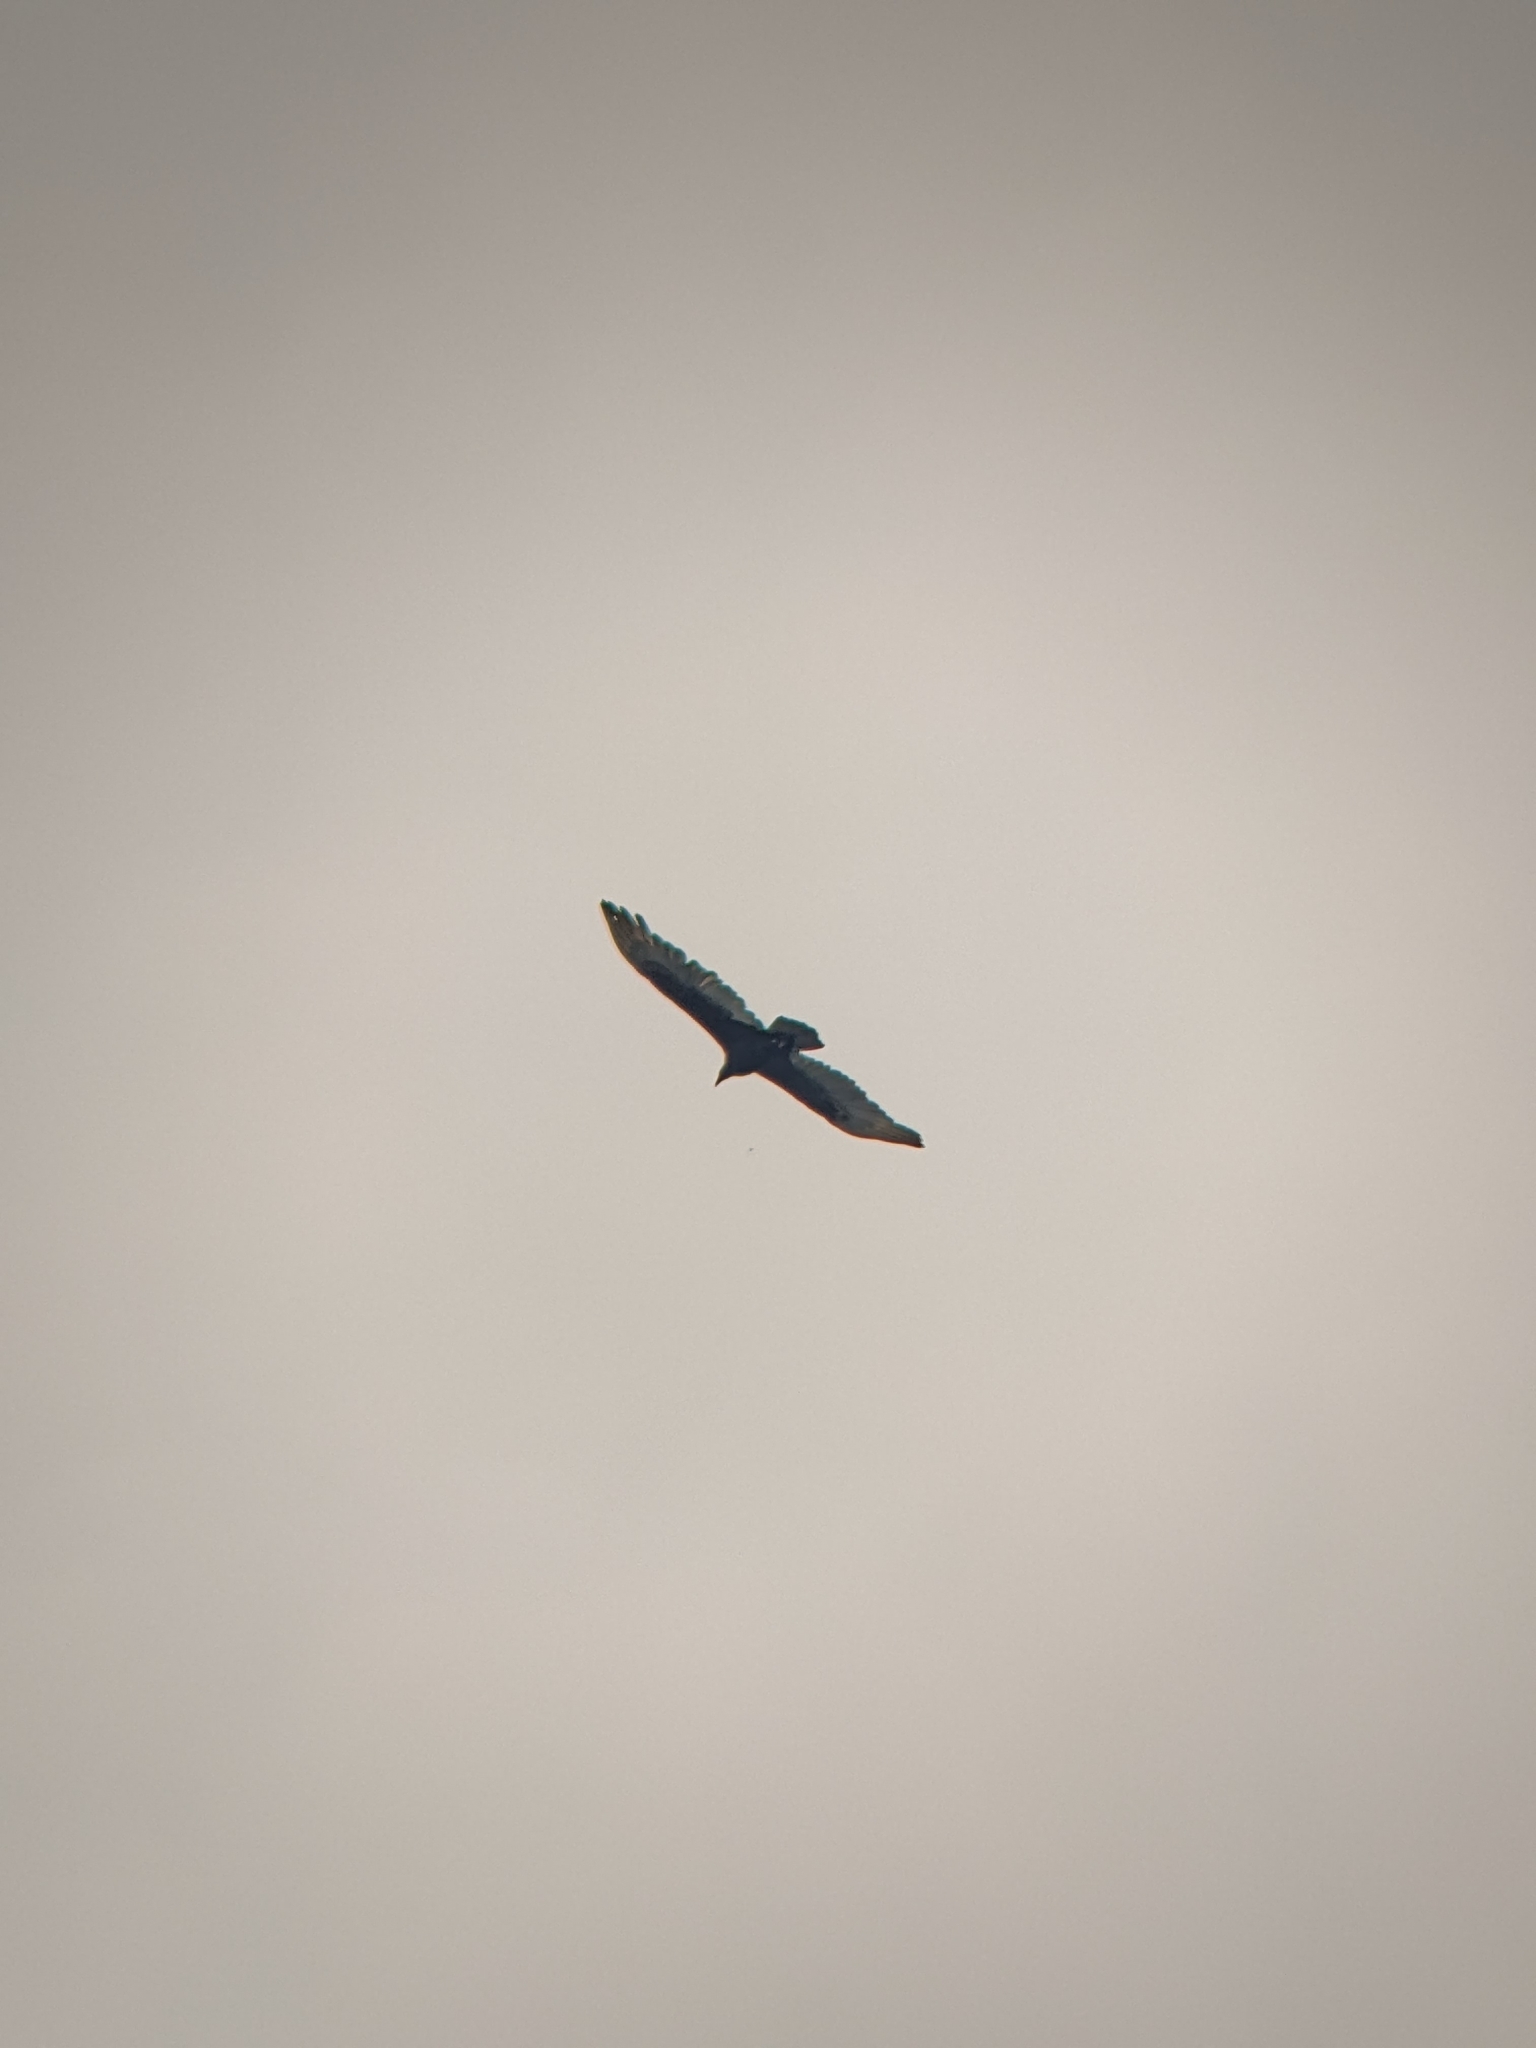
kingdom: Animalia
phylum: Chordata
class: Aves
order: Accipitriformes
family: Cathartidae
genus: Cathartes
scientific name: Cathartes aura
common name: Turkey vulture
